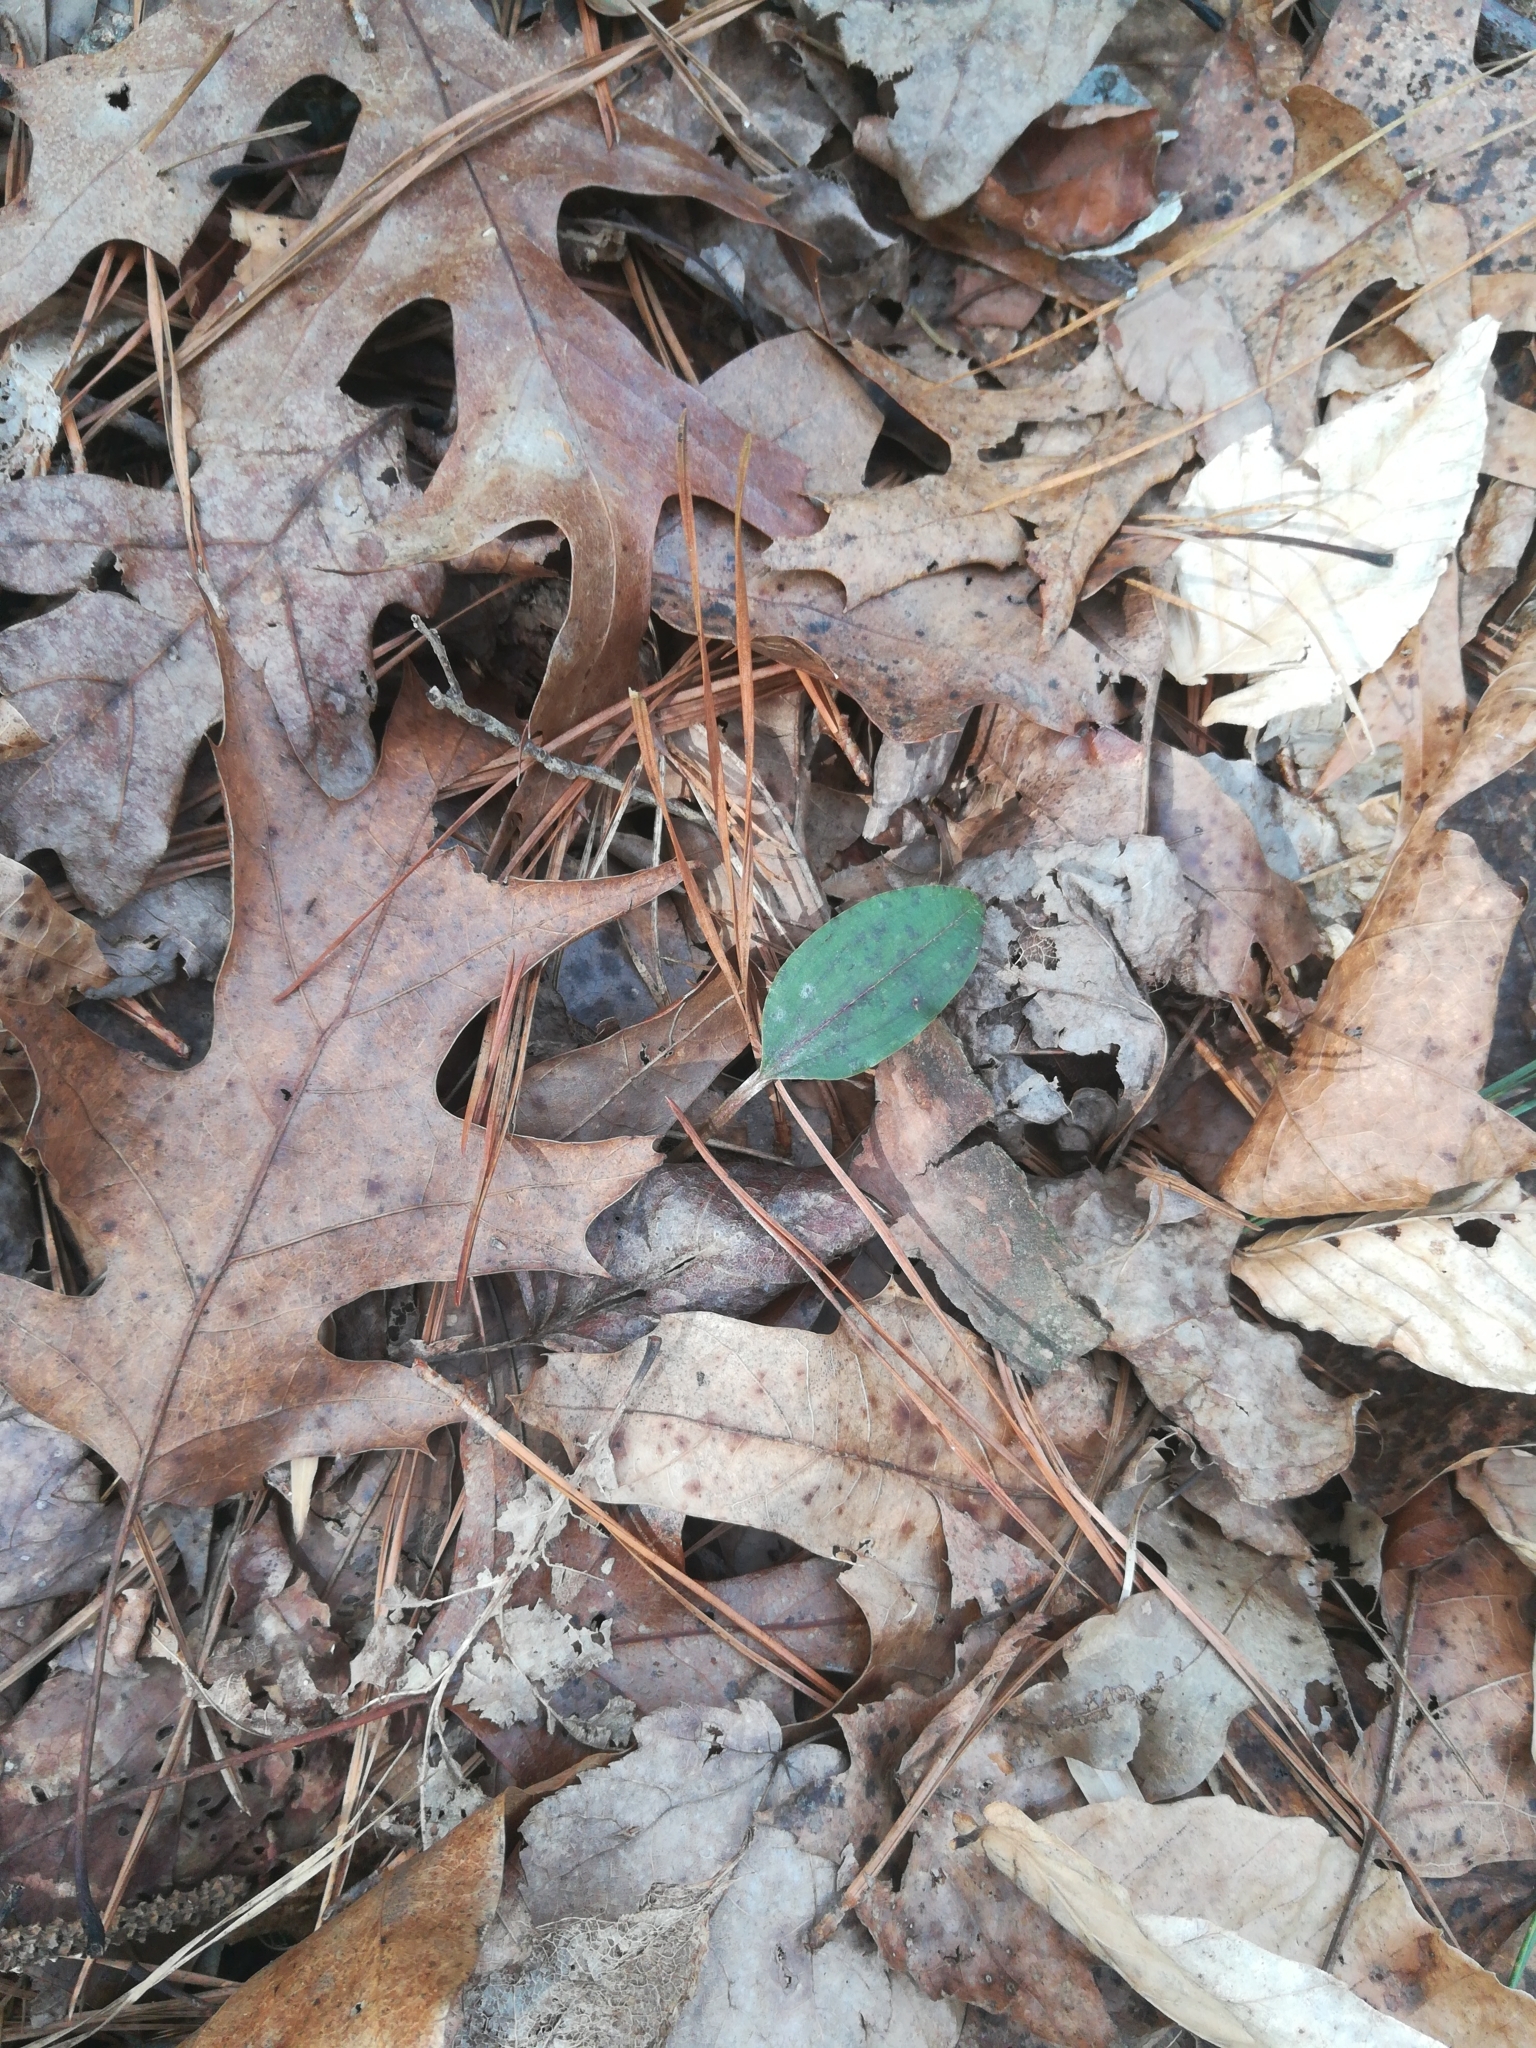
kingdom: Plantae
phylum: Tracheophyta
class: Liliopsida
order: Asparagales
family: Orchidaceae
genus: Tipularia
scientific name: Tipularia discolor
